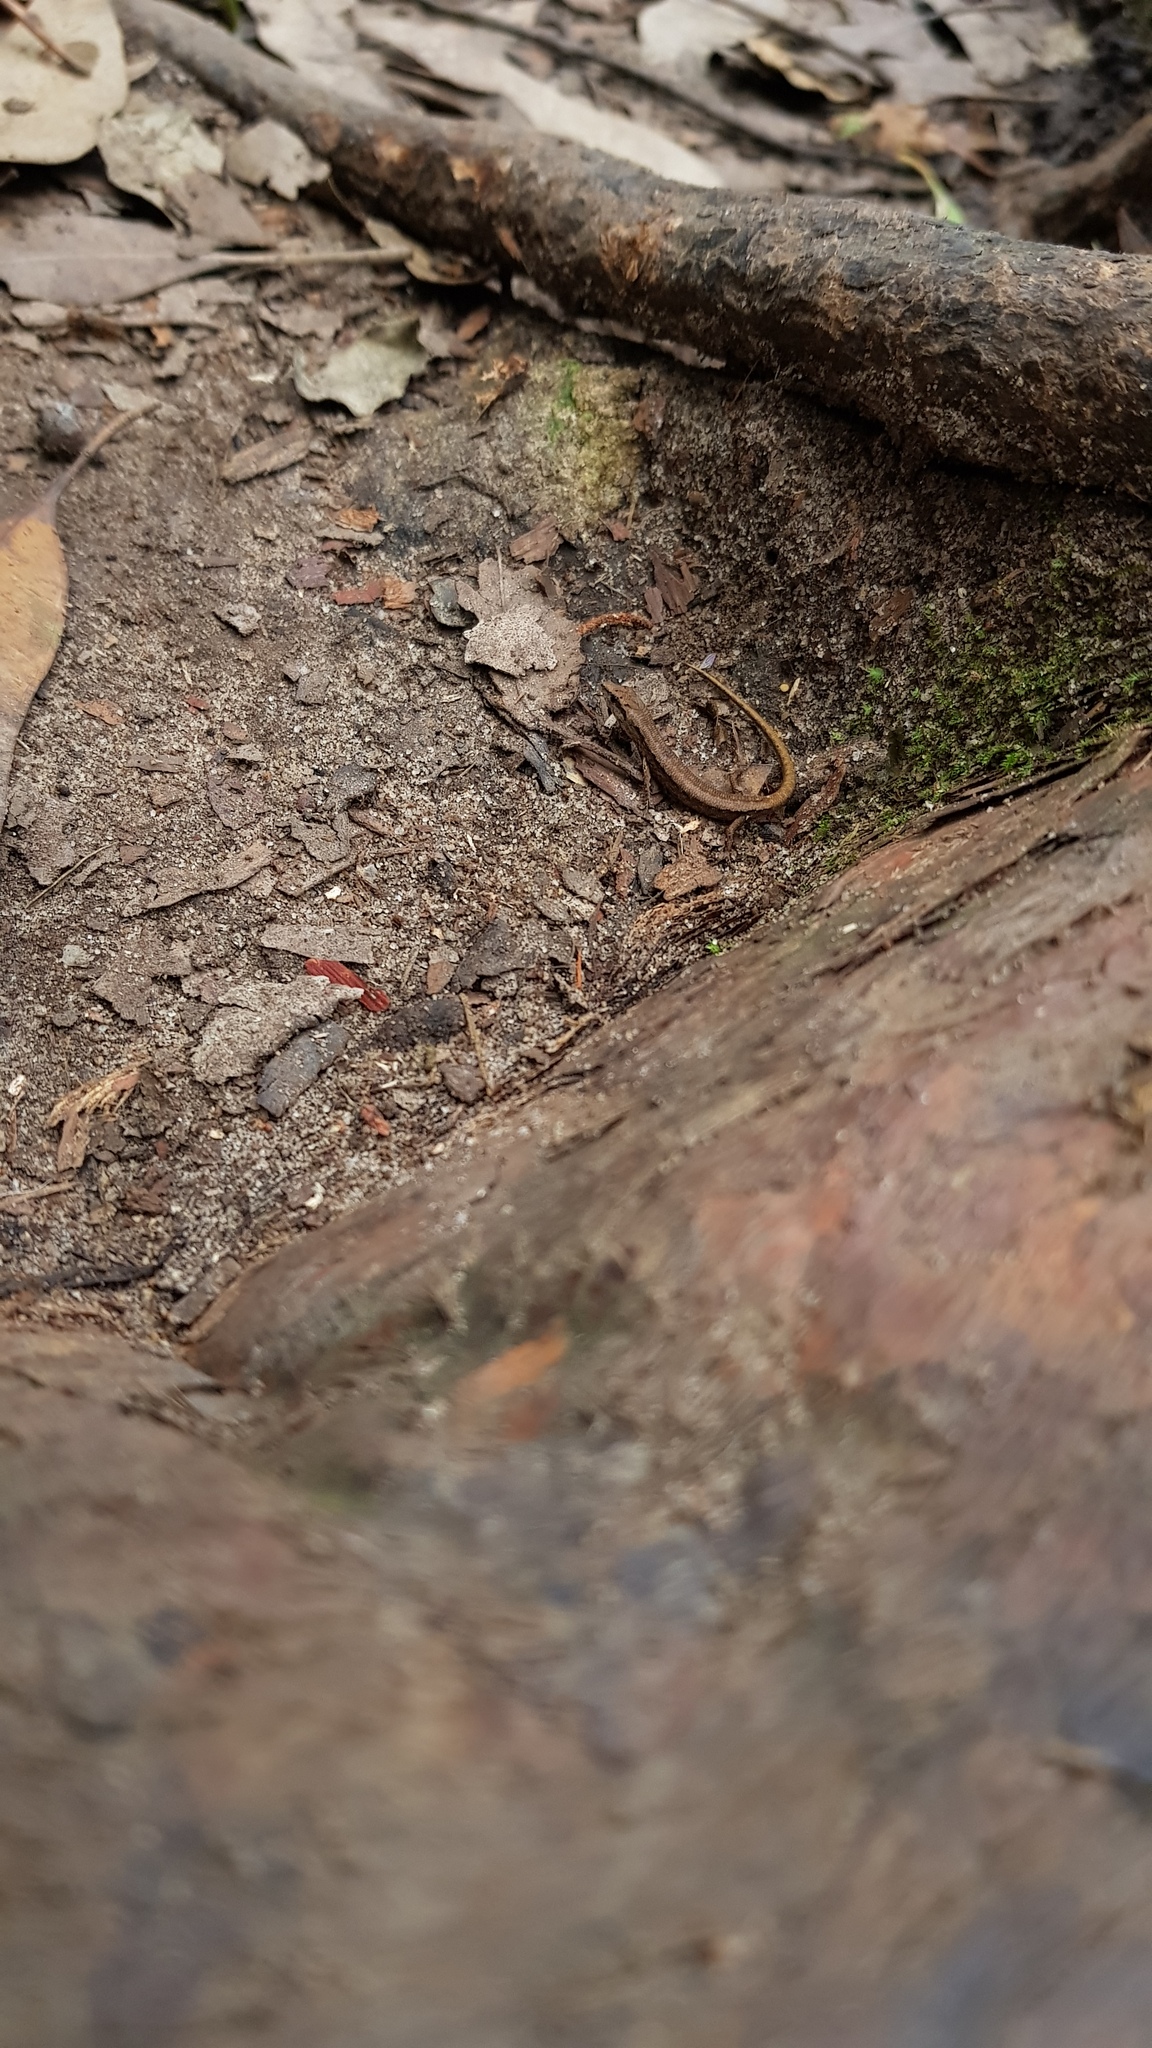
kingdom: Animalia
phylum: Chordata
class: Squamata
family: Scincidae
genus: Saproscincus
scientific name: Saproscincus spectabilis
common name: Gully shadeskink
